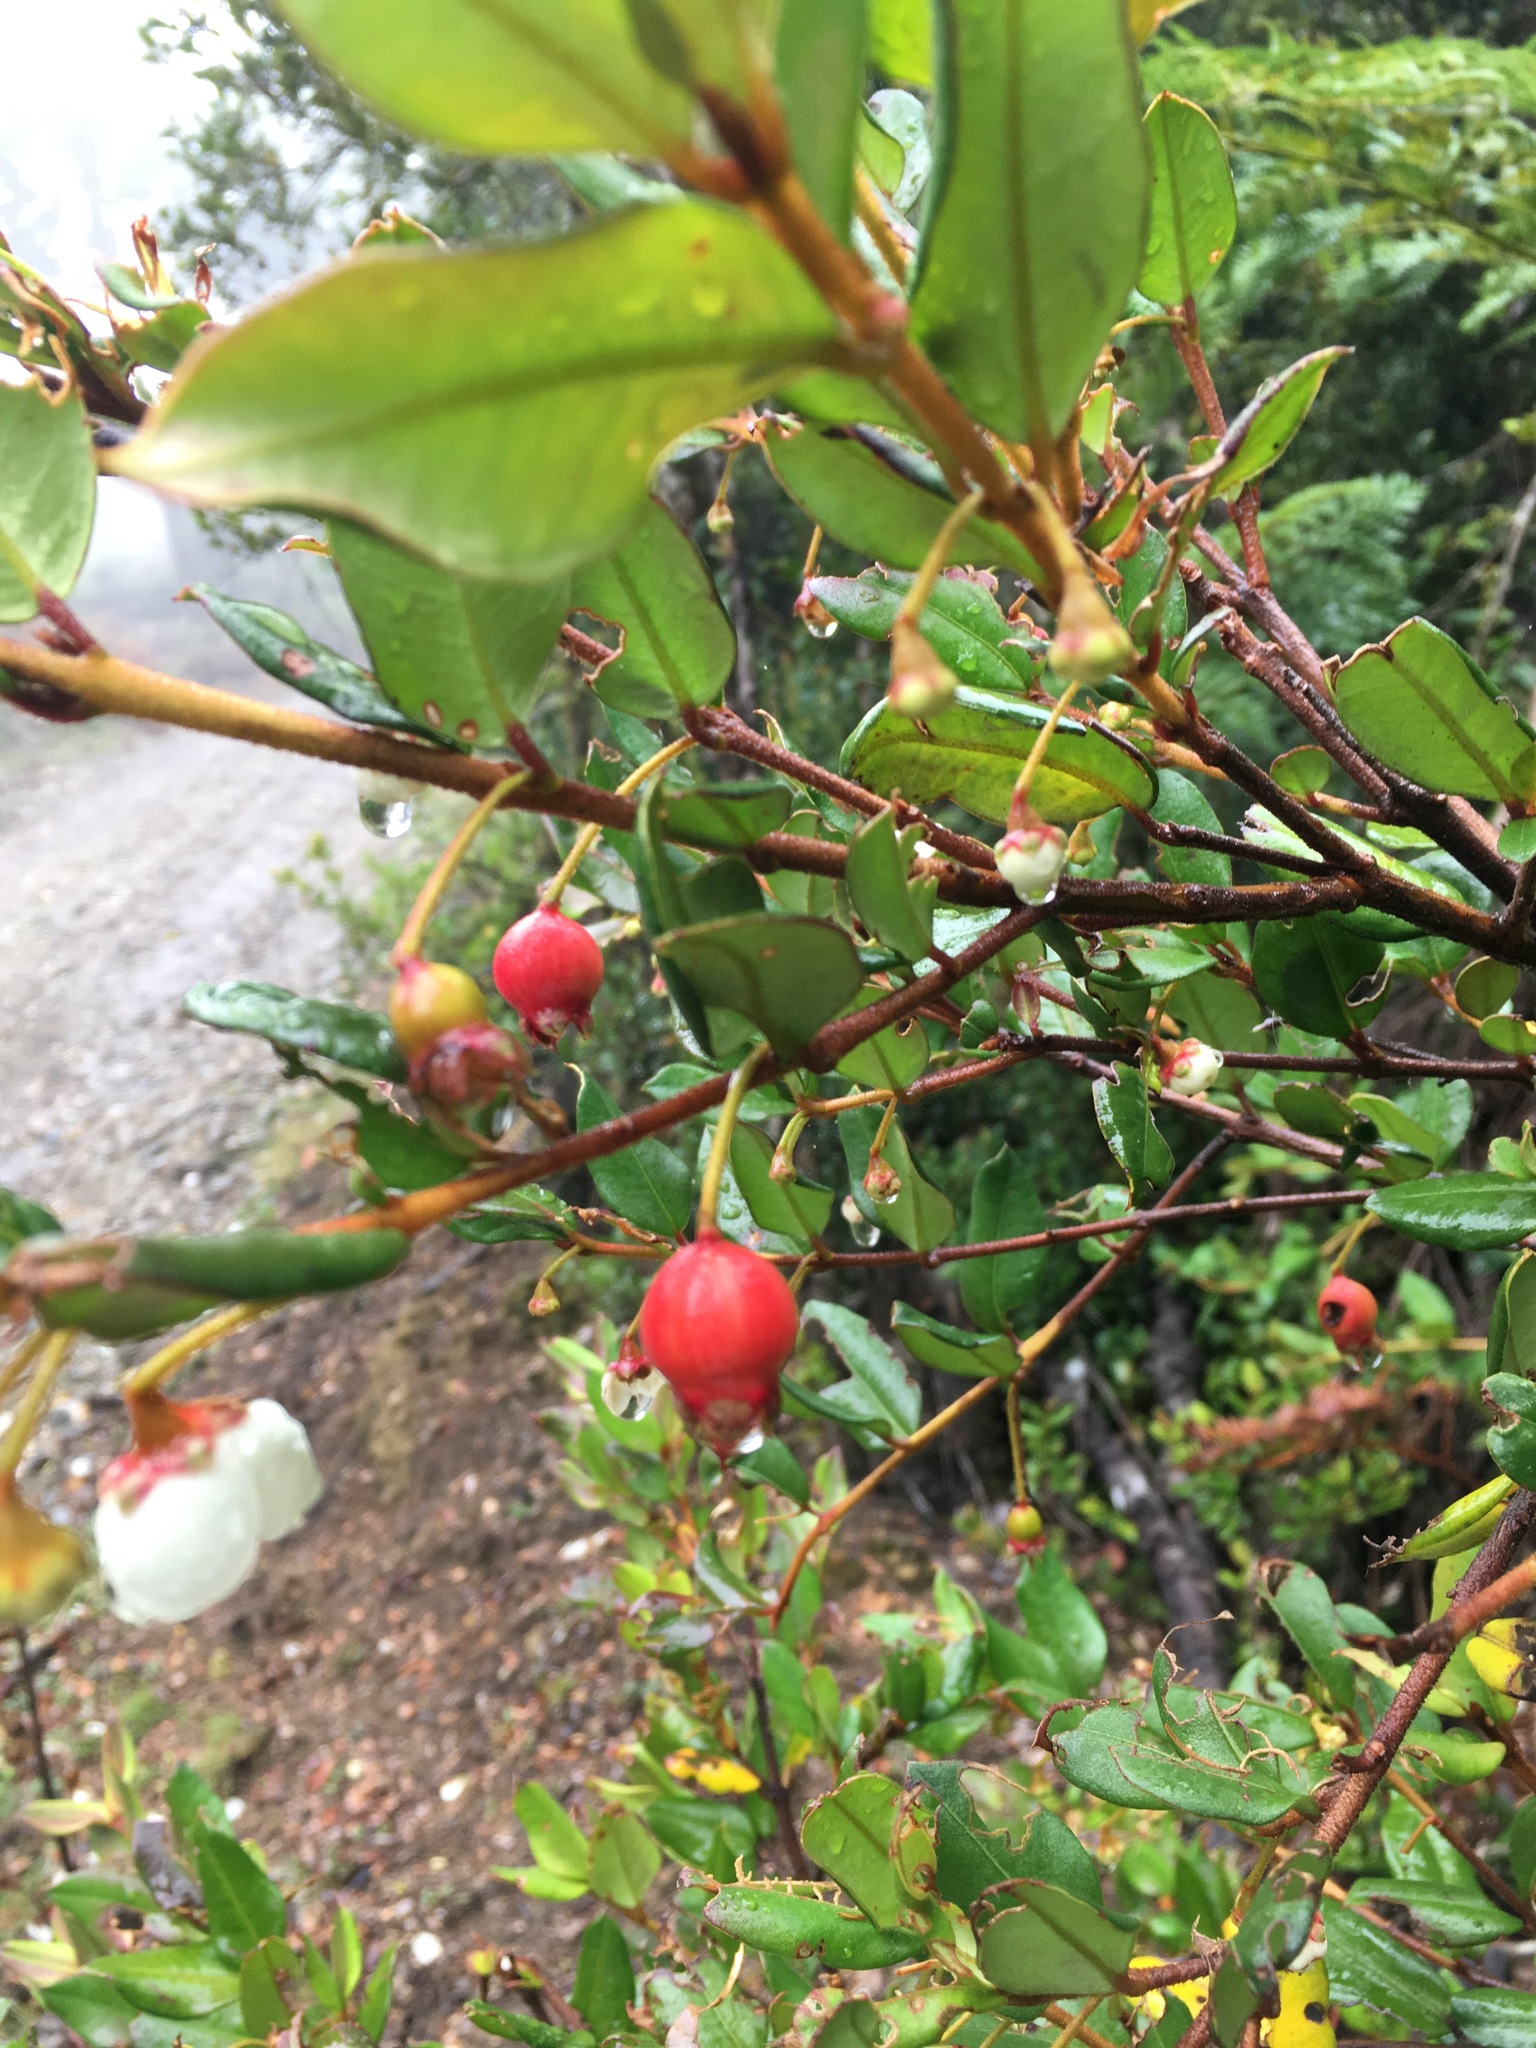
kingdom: Plantae
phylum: Tracheophyta
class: Magnoliopsida
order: Myrtales
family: Myrtaceae
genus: Ugni
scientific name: Ugni molinae
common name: Chilean-guava
